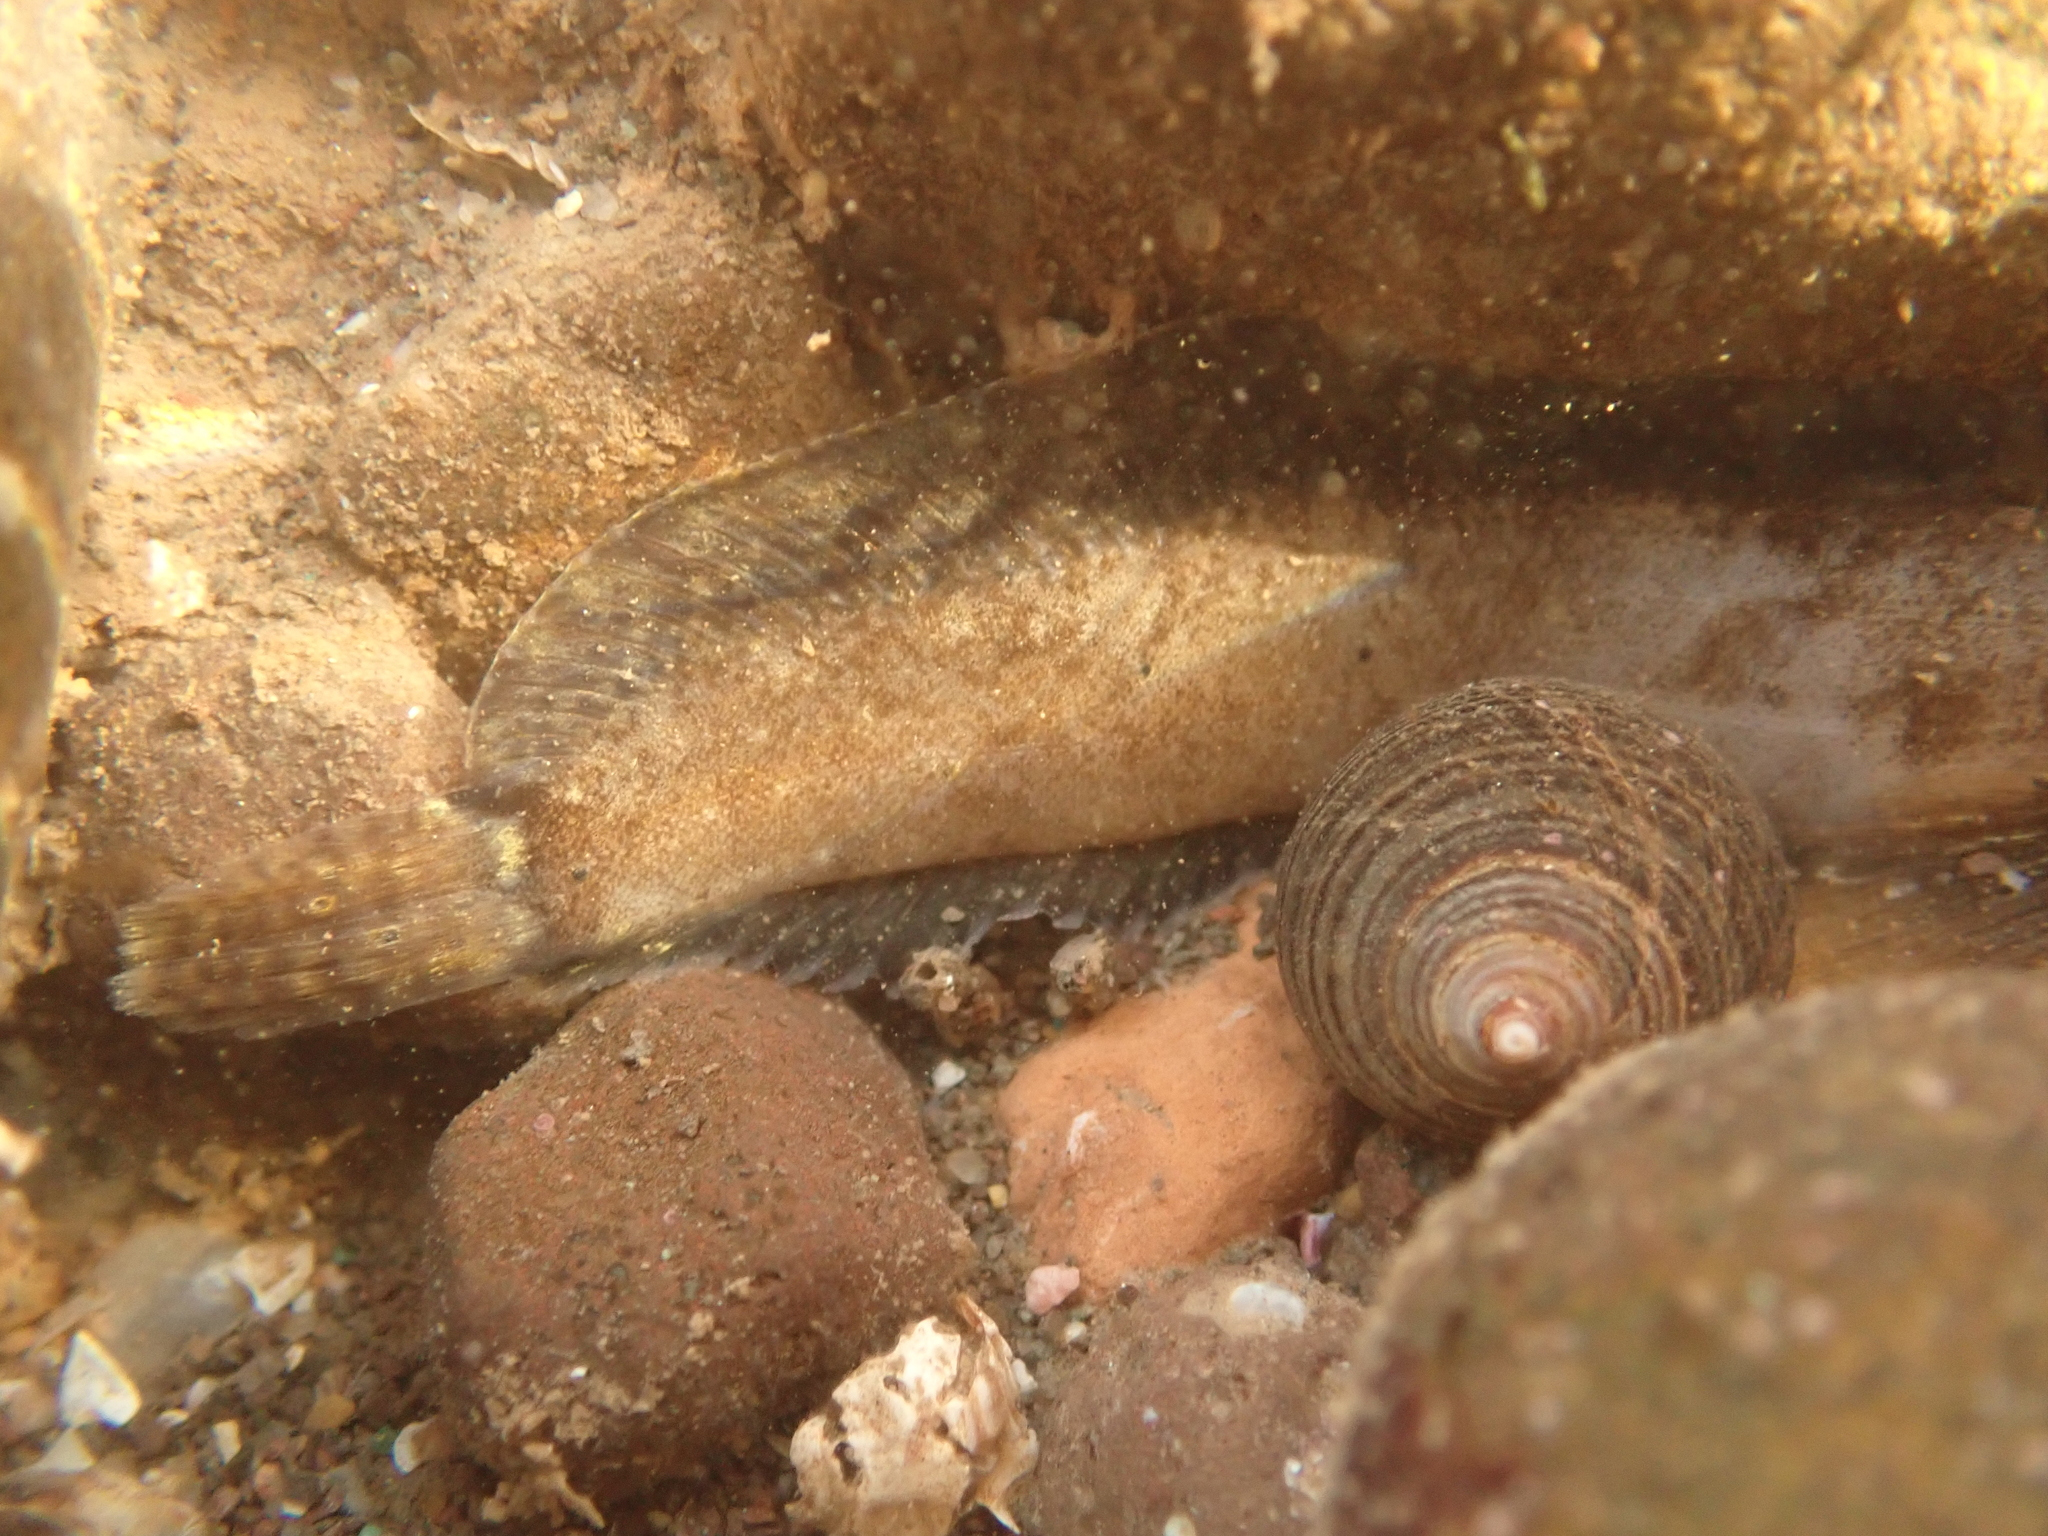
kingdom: Animalia
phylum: Chordata
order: Perciformes
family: Stichaeidae
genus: Ulvaria
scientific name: Ulvaria subbifurcata
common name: Radiated shanny
